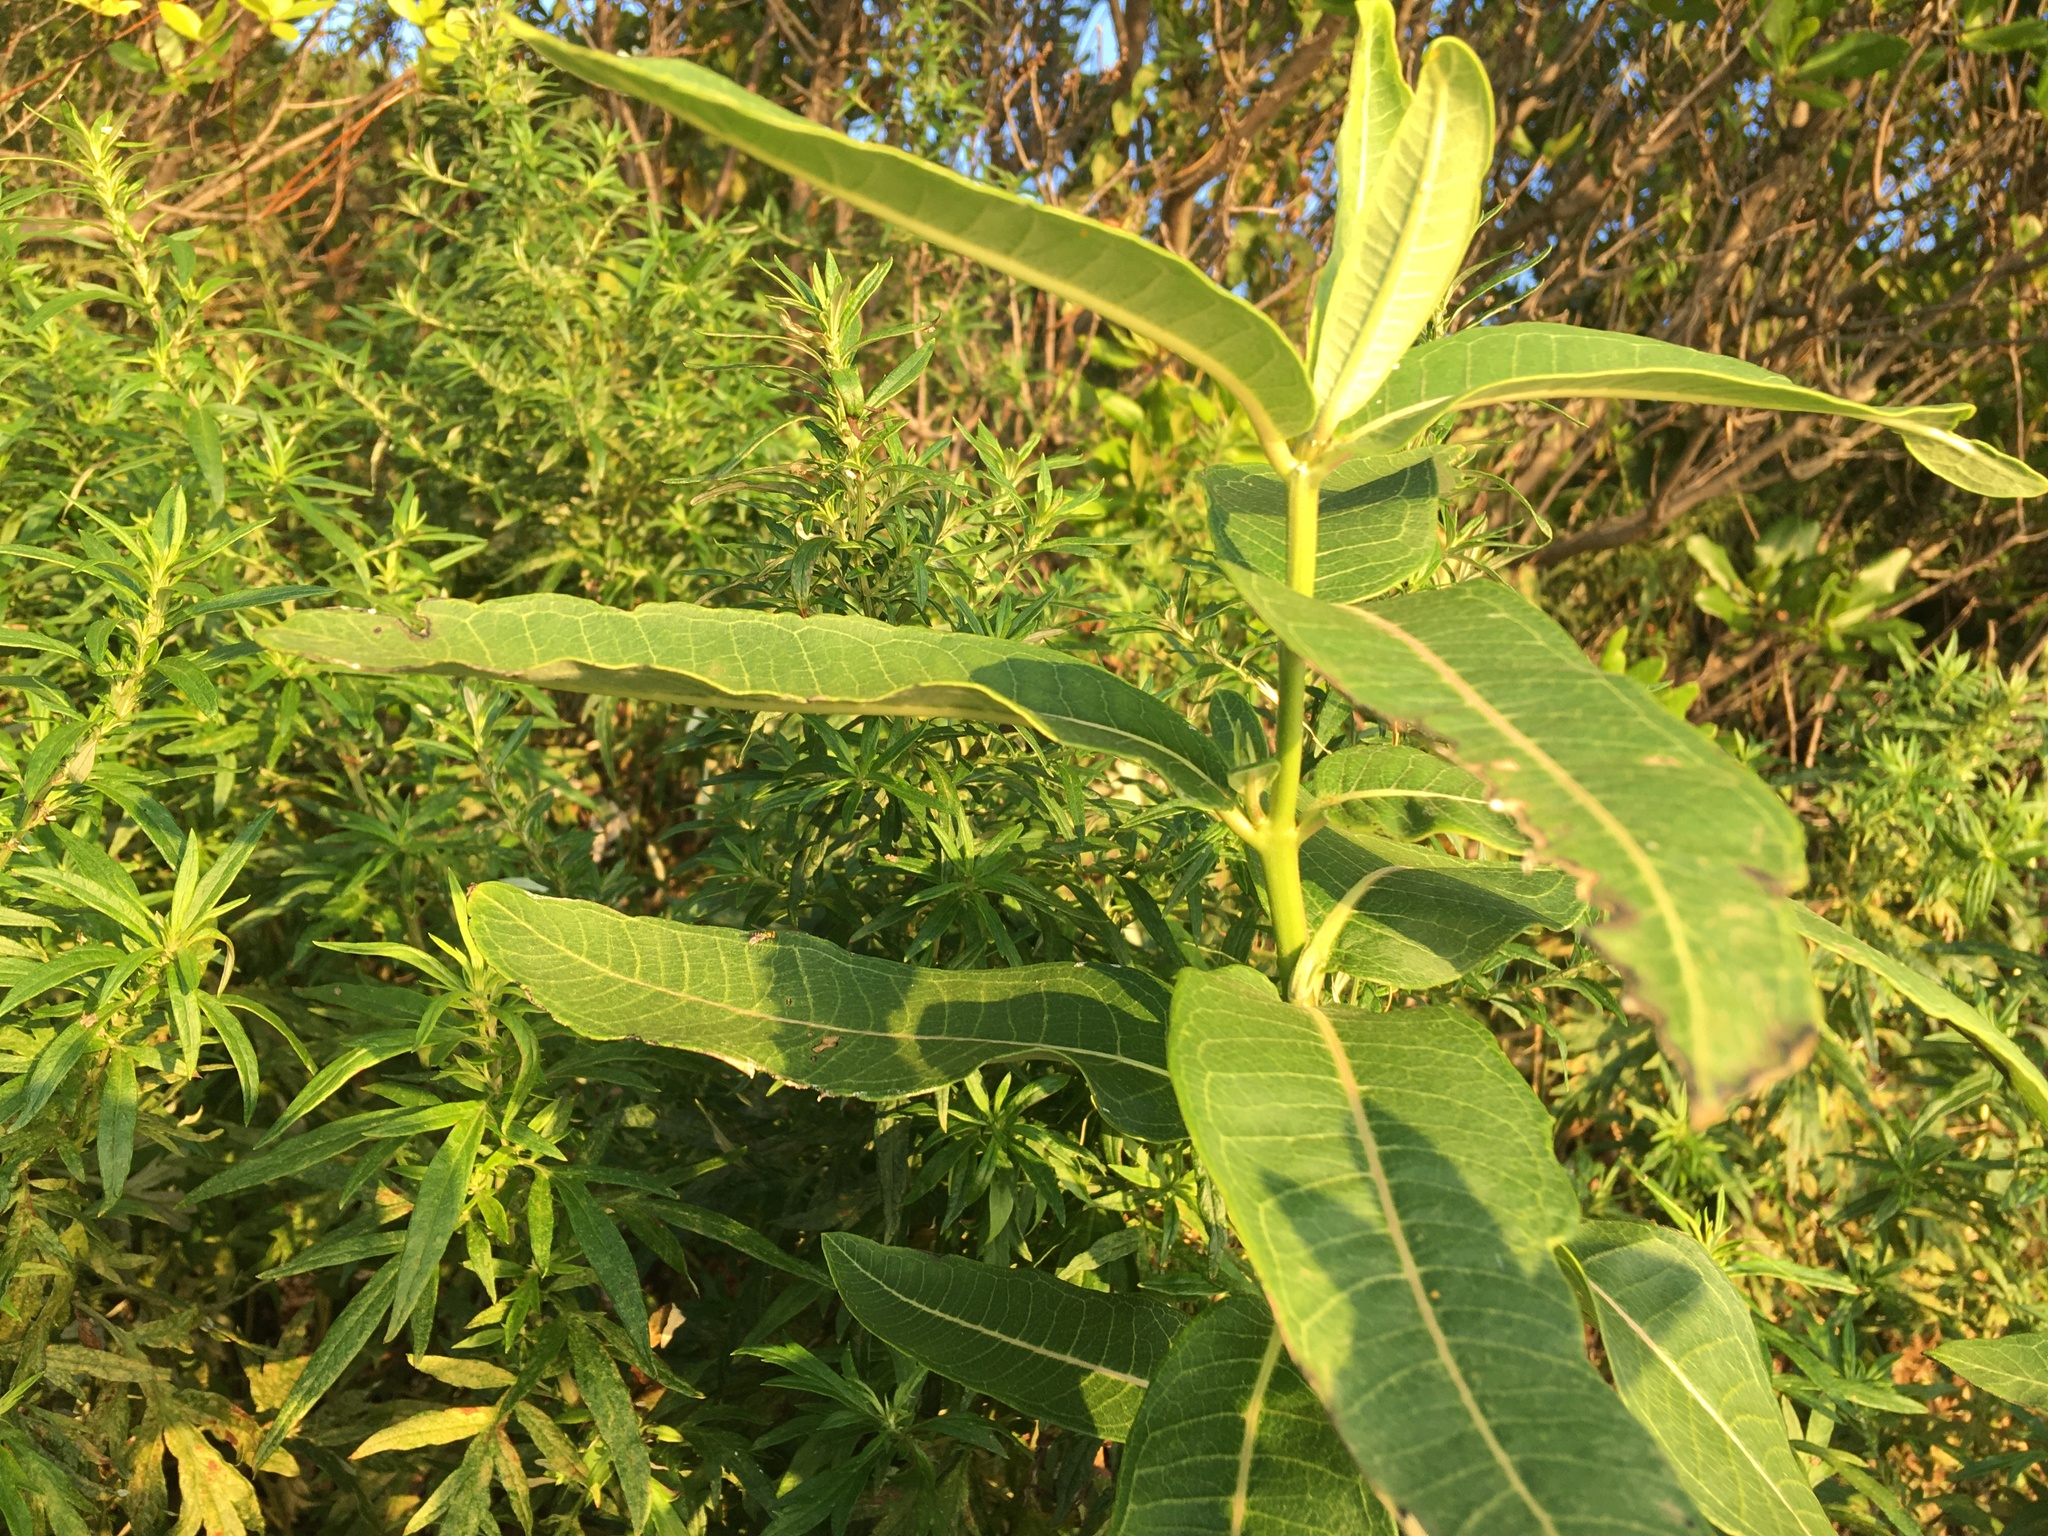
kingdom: Plantae
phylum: Tracheophyta
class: Magnoliopsida
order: Gentianales
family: Apocynaceae
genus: Asclepias
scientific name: Asclepias syriaca
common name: Common milkweed
